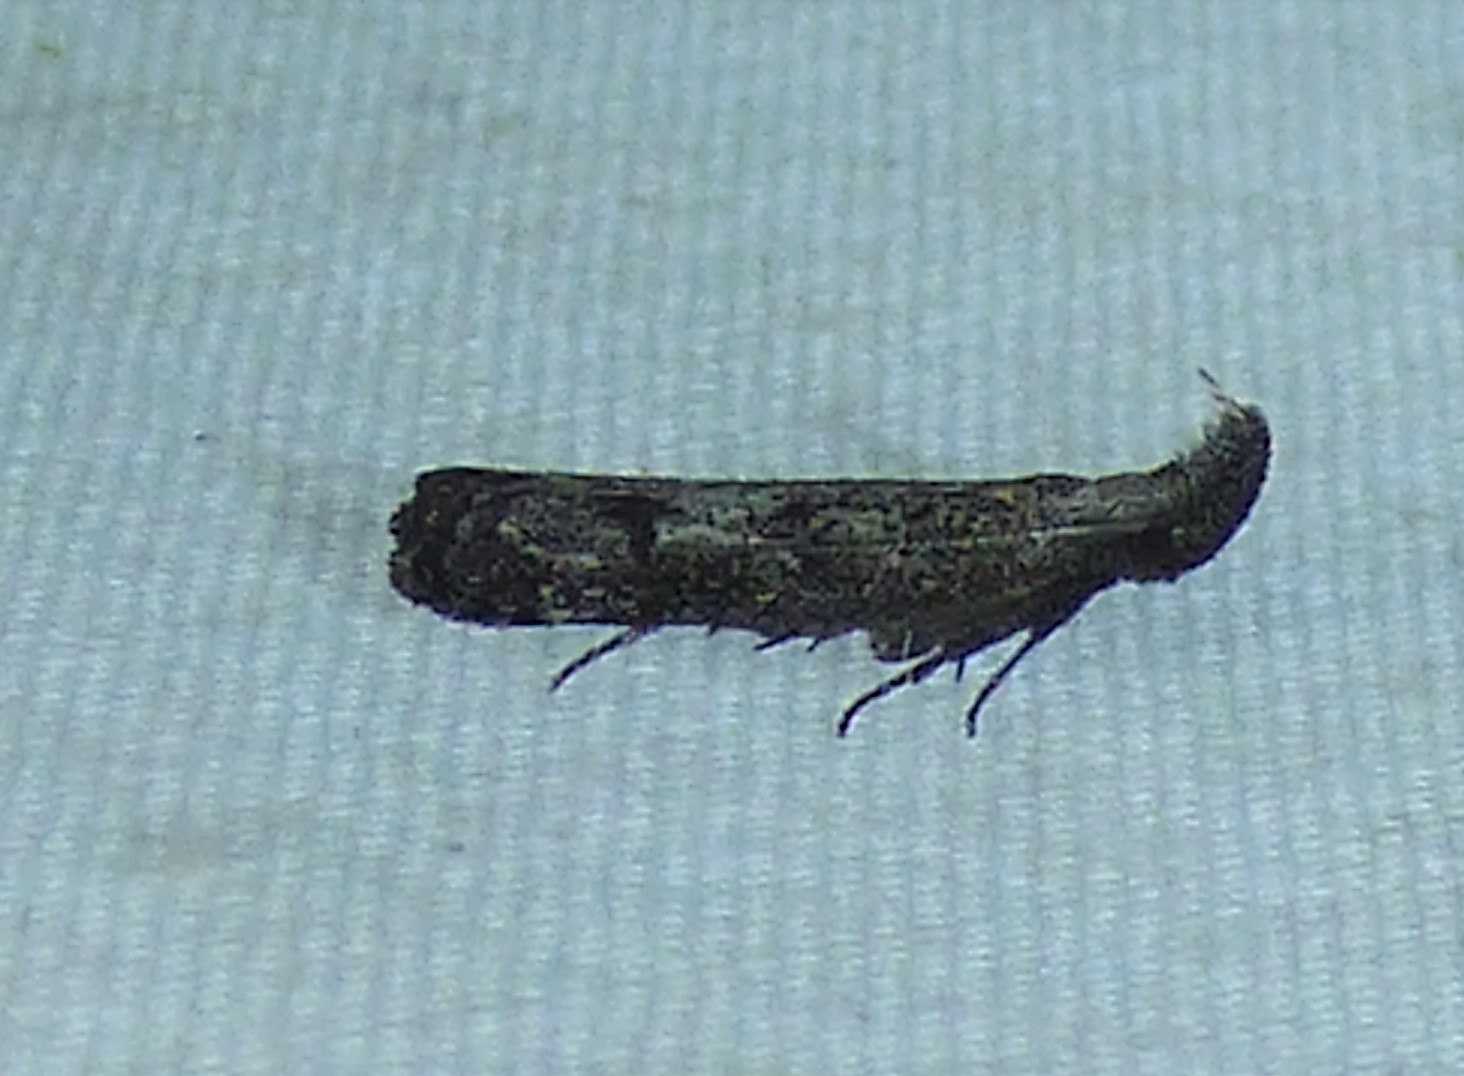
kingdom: Animalia
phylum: Arthropoda
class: Insecta
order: Lepidoptera
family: Gelechiidae
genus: Dichomeris
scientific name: Dichomeris inversella
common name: Inverse dichomeris moth
